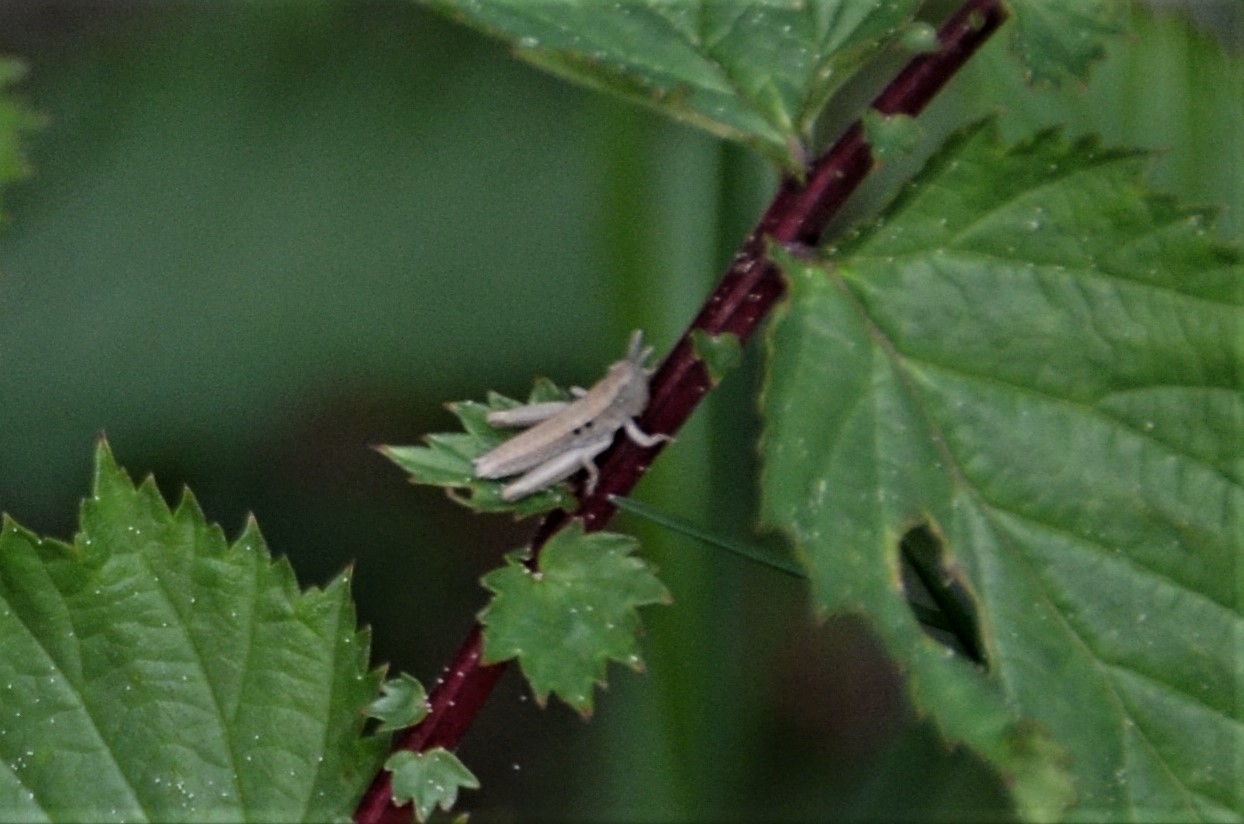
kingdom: Animalia
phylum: Arthropoda
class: Insecta
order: Orthoptera
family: Acrididae
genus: Euthystira
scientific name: Euthystira brachyptera
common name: Small gold grasshopper
